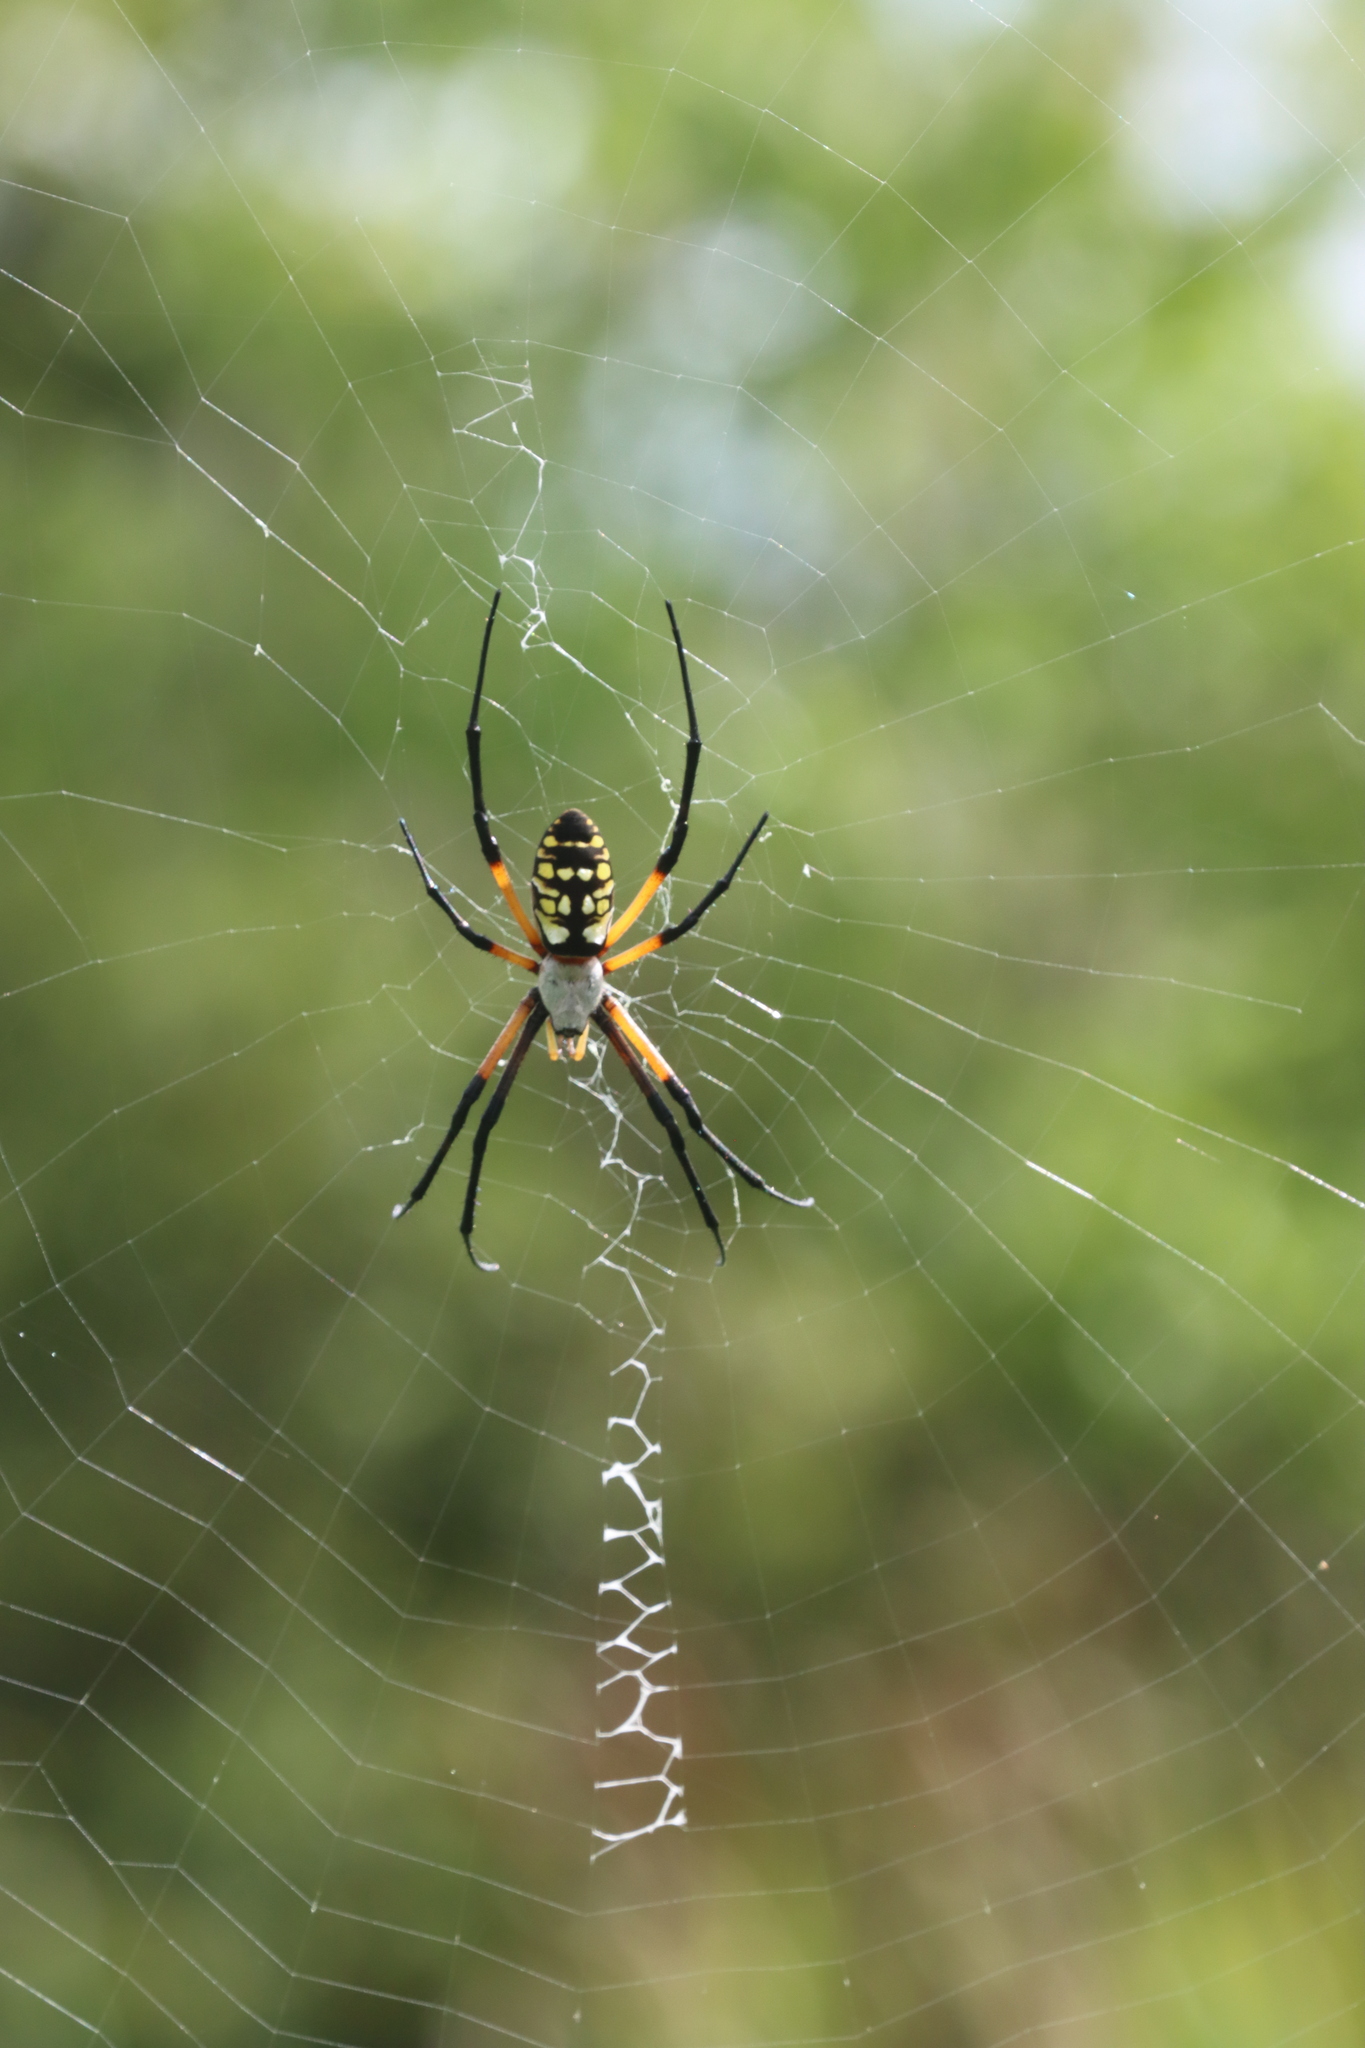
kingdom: Animalia
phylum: Arthropoda
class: Arachnida
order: Araneae
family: Araneidae
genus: Argiope
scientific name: Argiope aurantia
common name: Orb weavers
